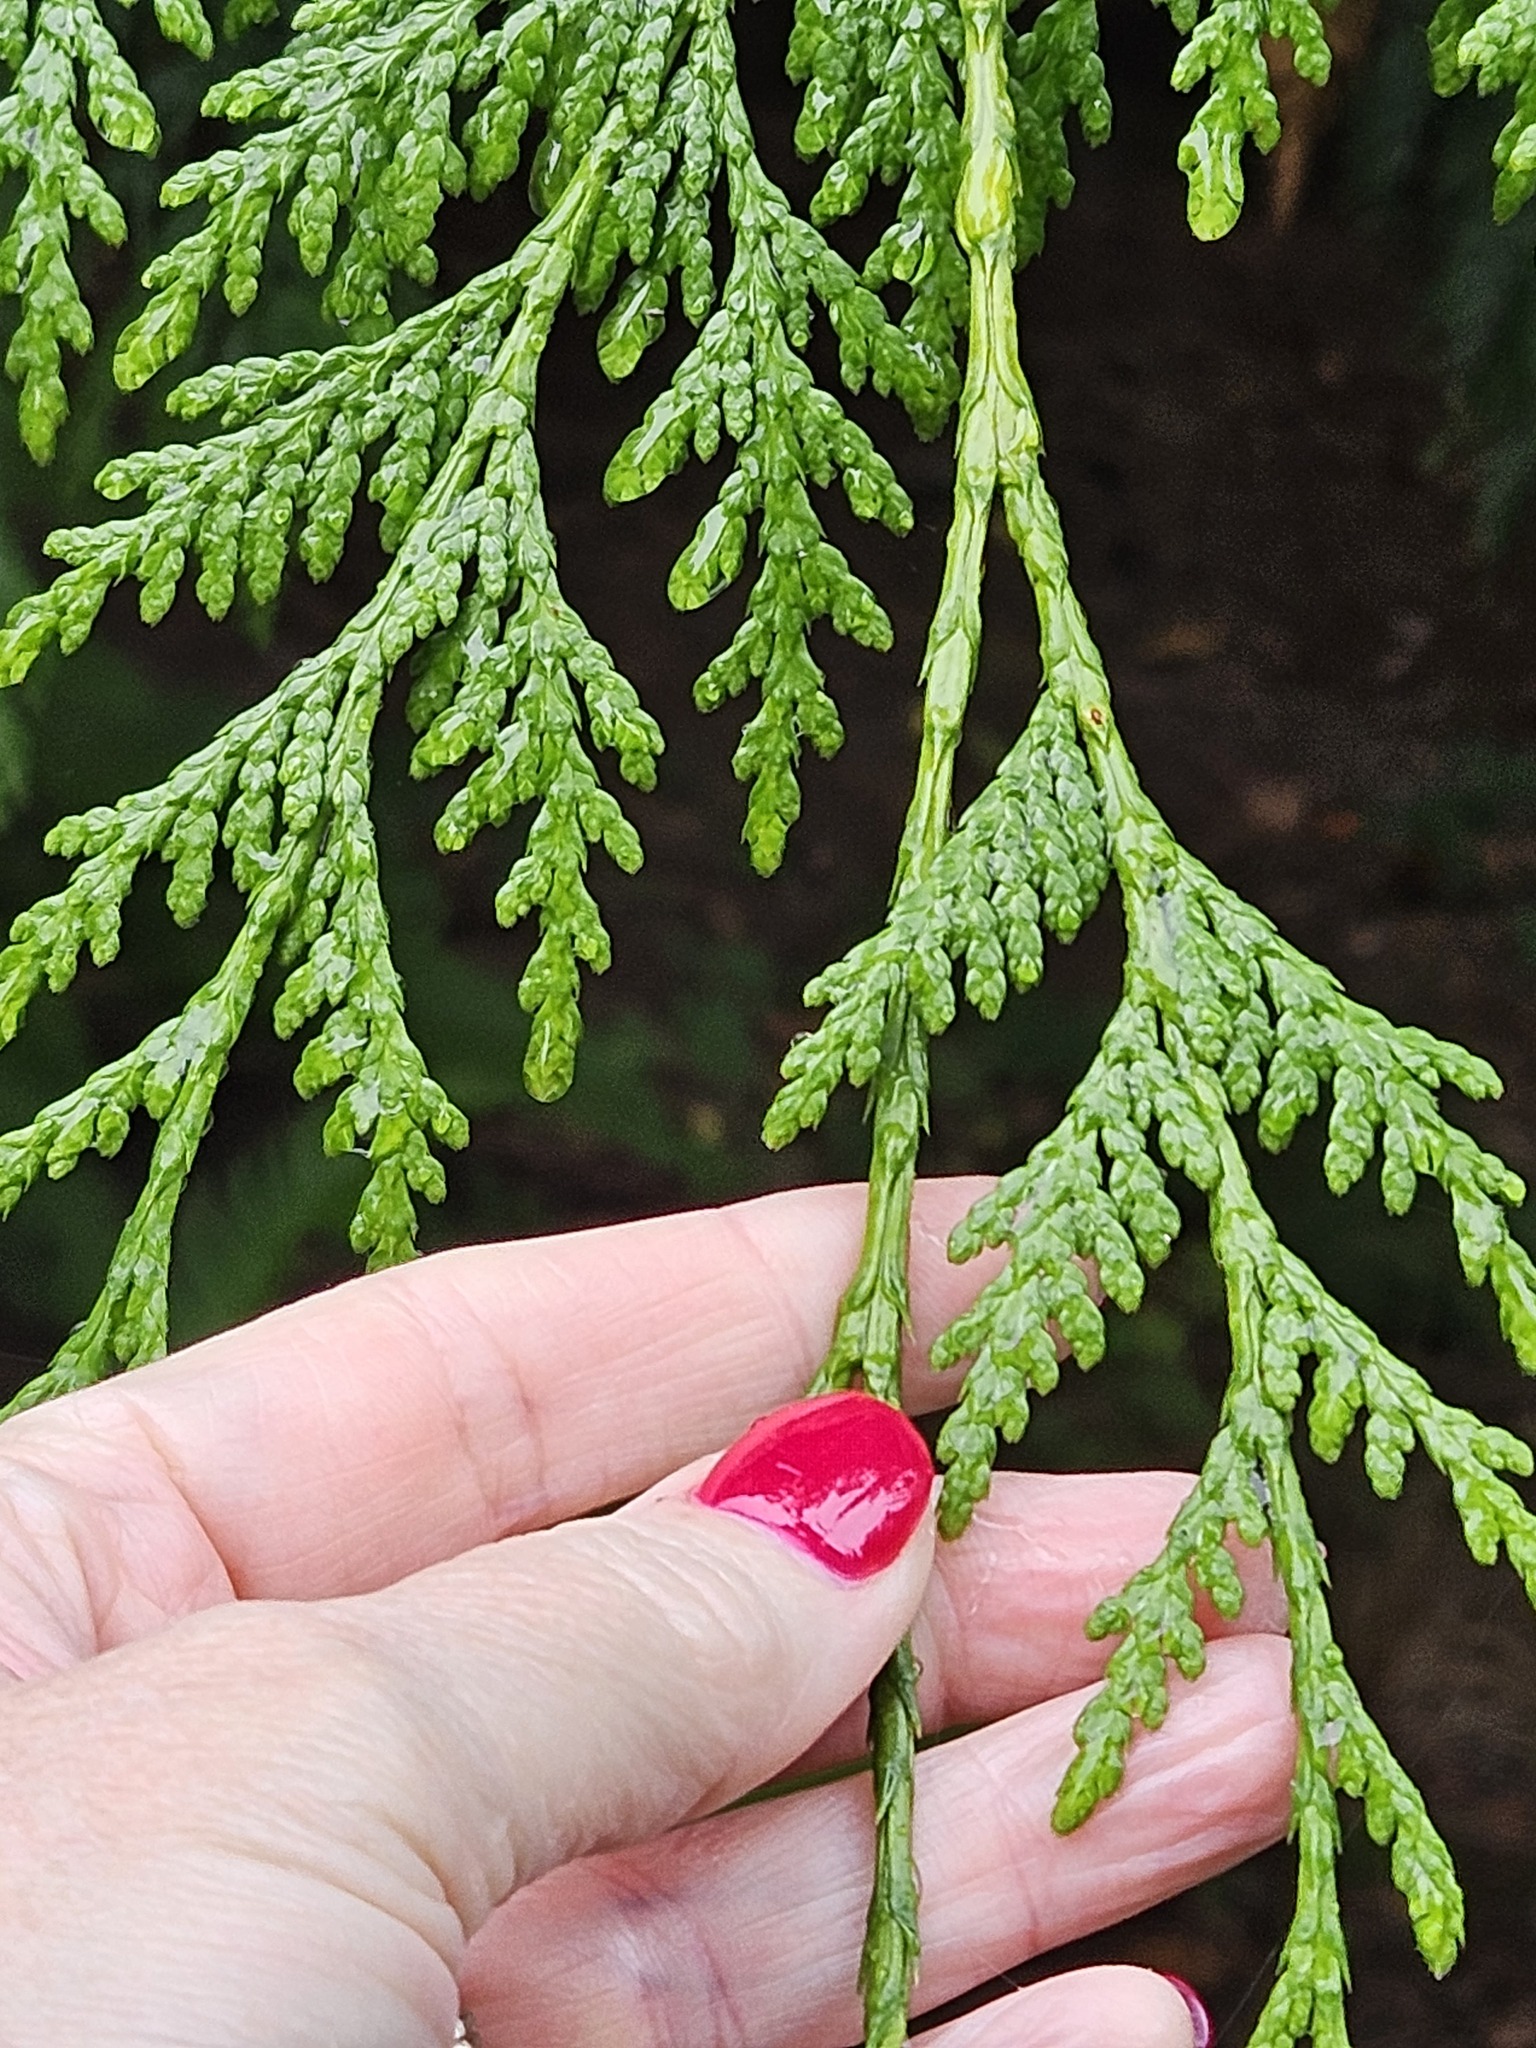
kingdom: Plantae
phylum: Tracheophyta
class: Pinopsida
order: Pinales
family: Cupressaceae
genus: Thuja
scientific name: Thuja plicata
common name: Western red-cedar
